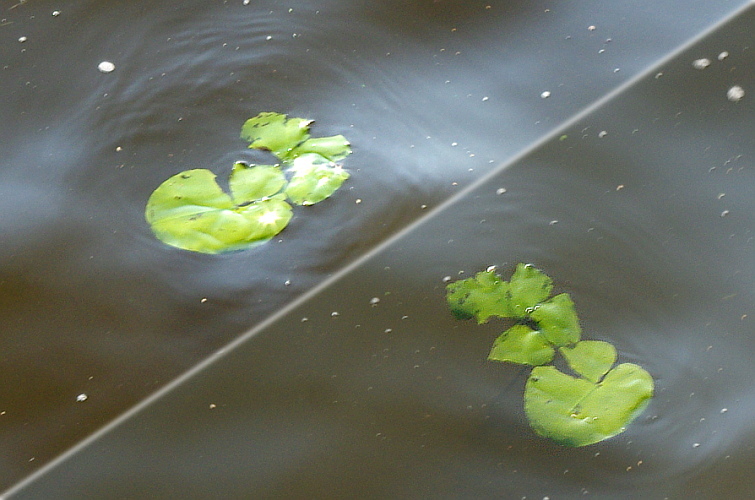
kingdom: Plantae
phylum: Tracheophyta
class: Magnoliopsida
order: Nymphaeales
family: Nymphaeaceae
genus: Nuphar
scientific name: Nuphar lutea
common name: Yellow water-lily
